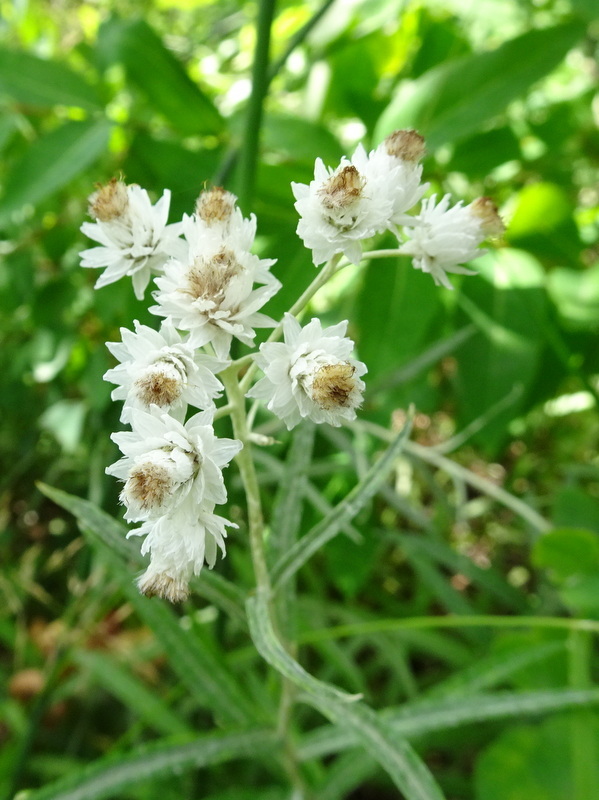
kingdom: Plantae
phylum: Tracheophyta
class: Magnoliopsida
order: Asterales
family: Asteraceae
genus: Anaphalis
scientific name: Anaphalis margaritacea
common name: Pearly everlasting
